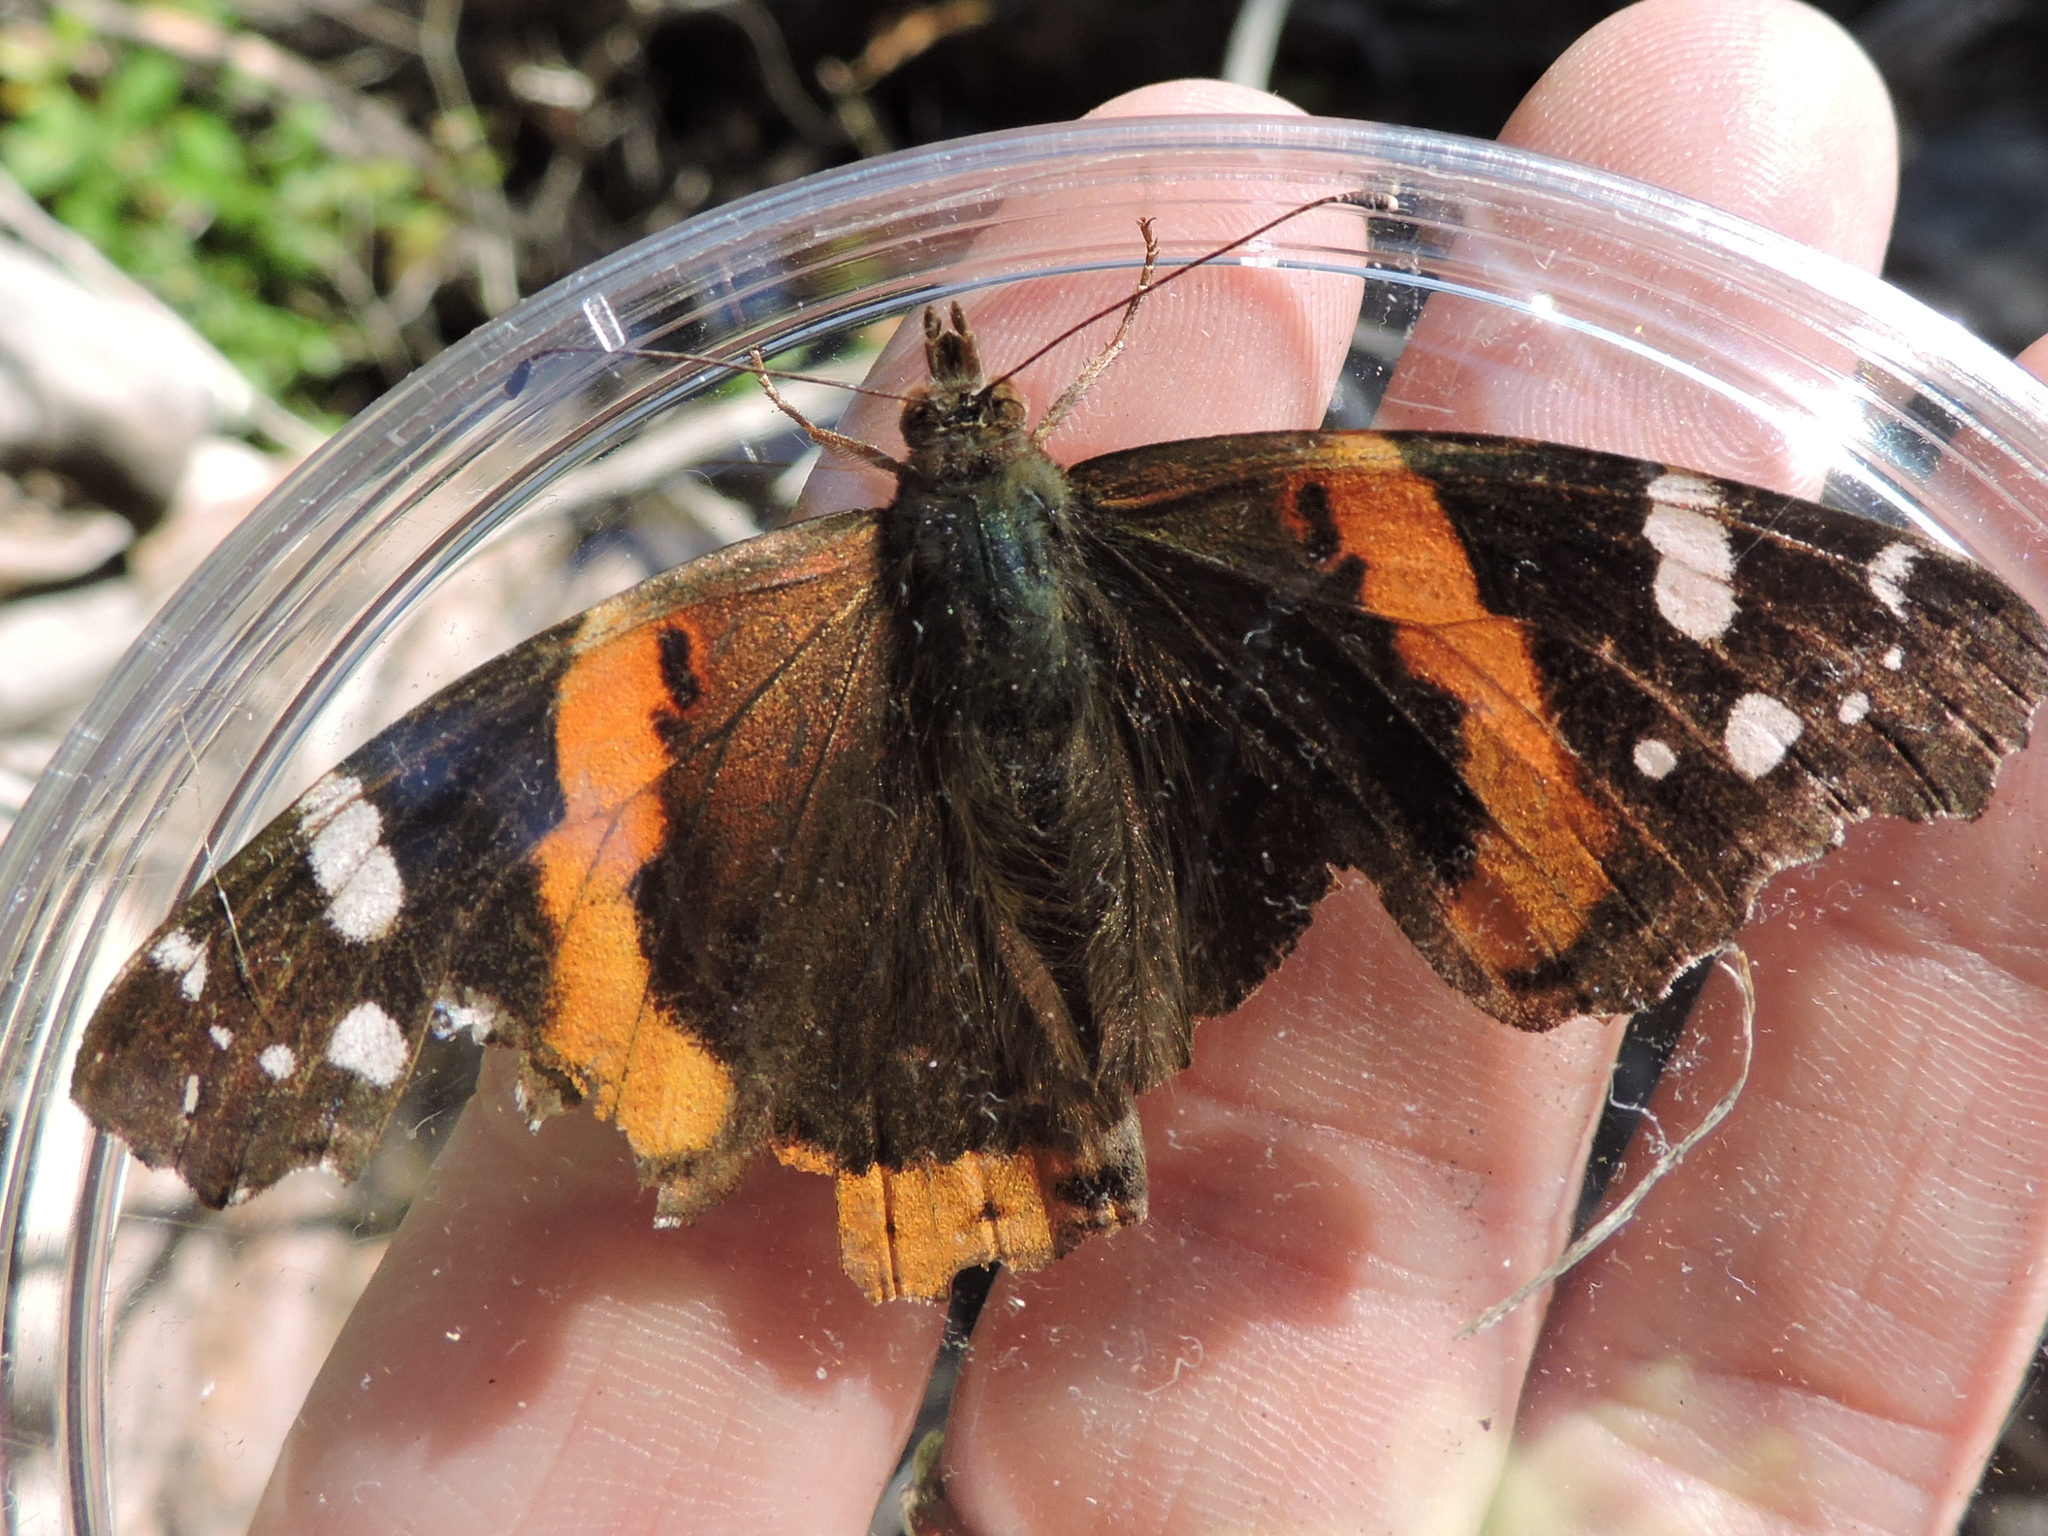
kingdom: Animalia
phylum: Arthropoda
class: Insecta
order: Lepidoptera
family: Nymphalidae
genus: Vanessa
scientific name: Vanessa atalanta
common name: Red admiral
